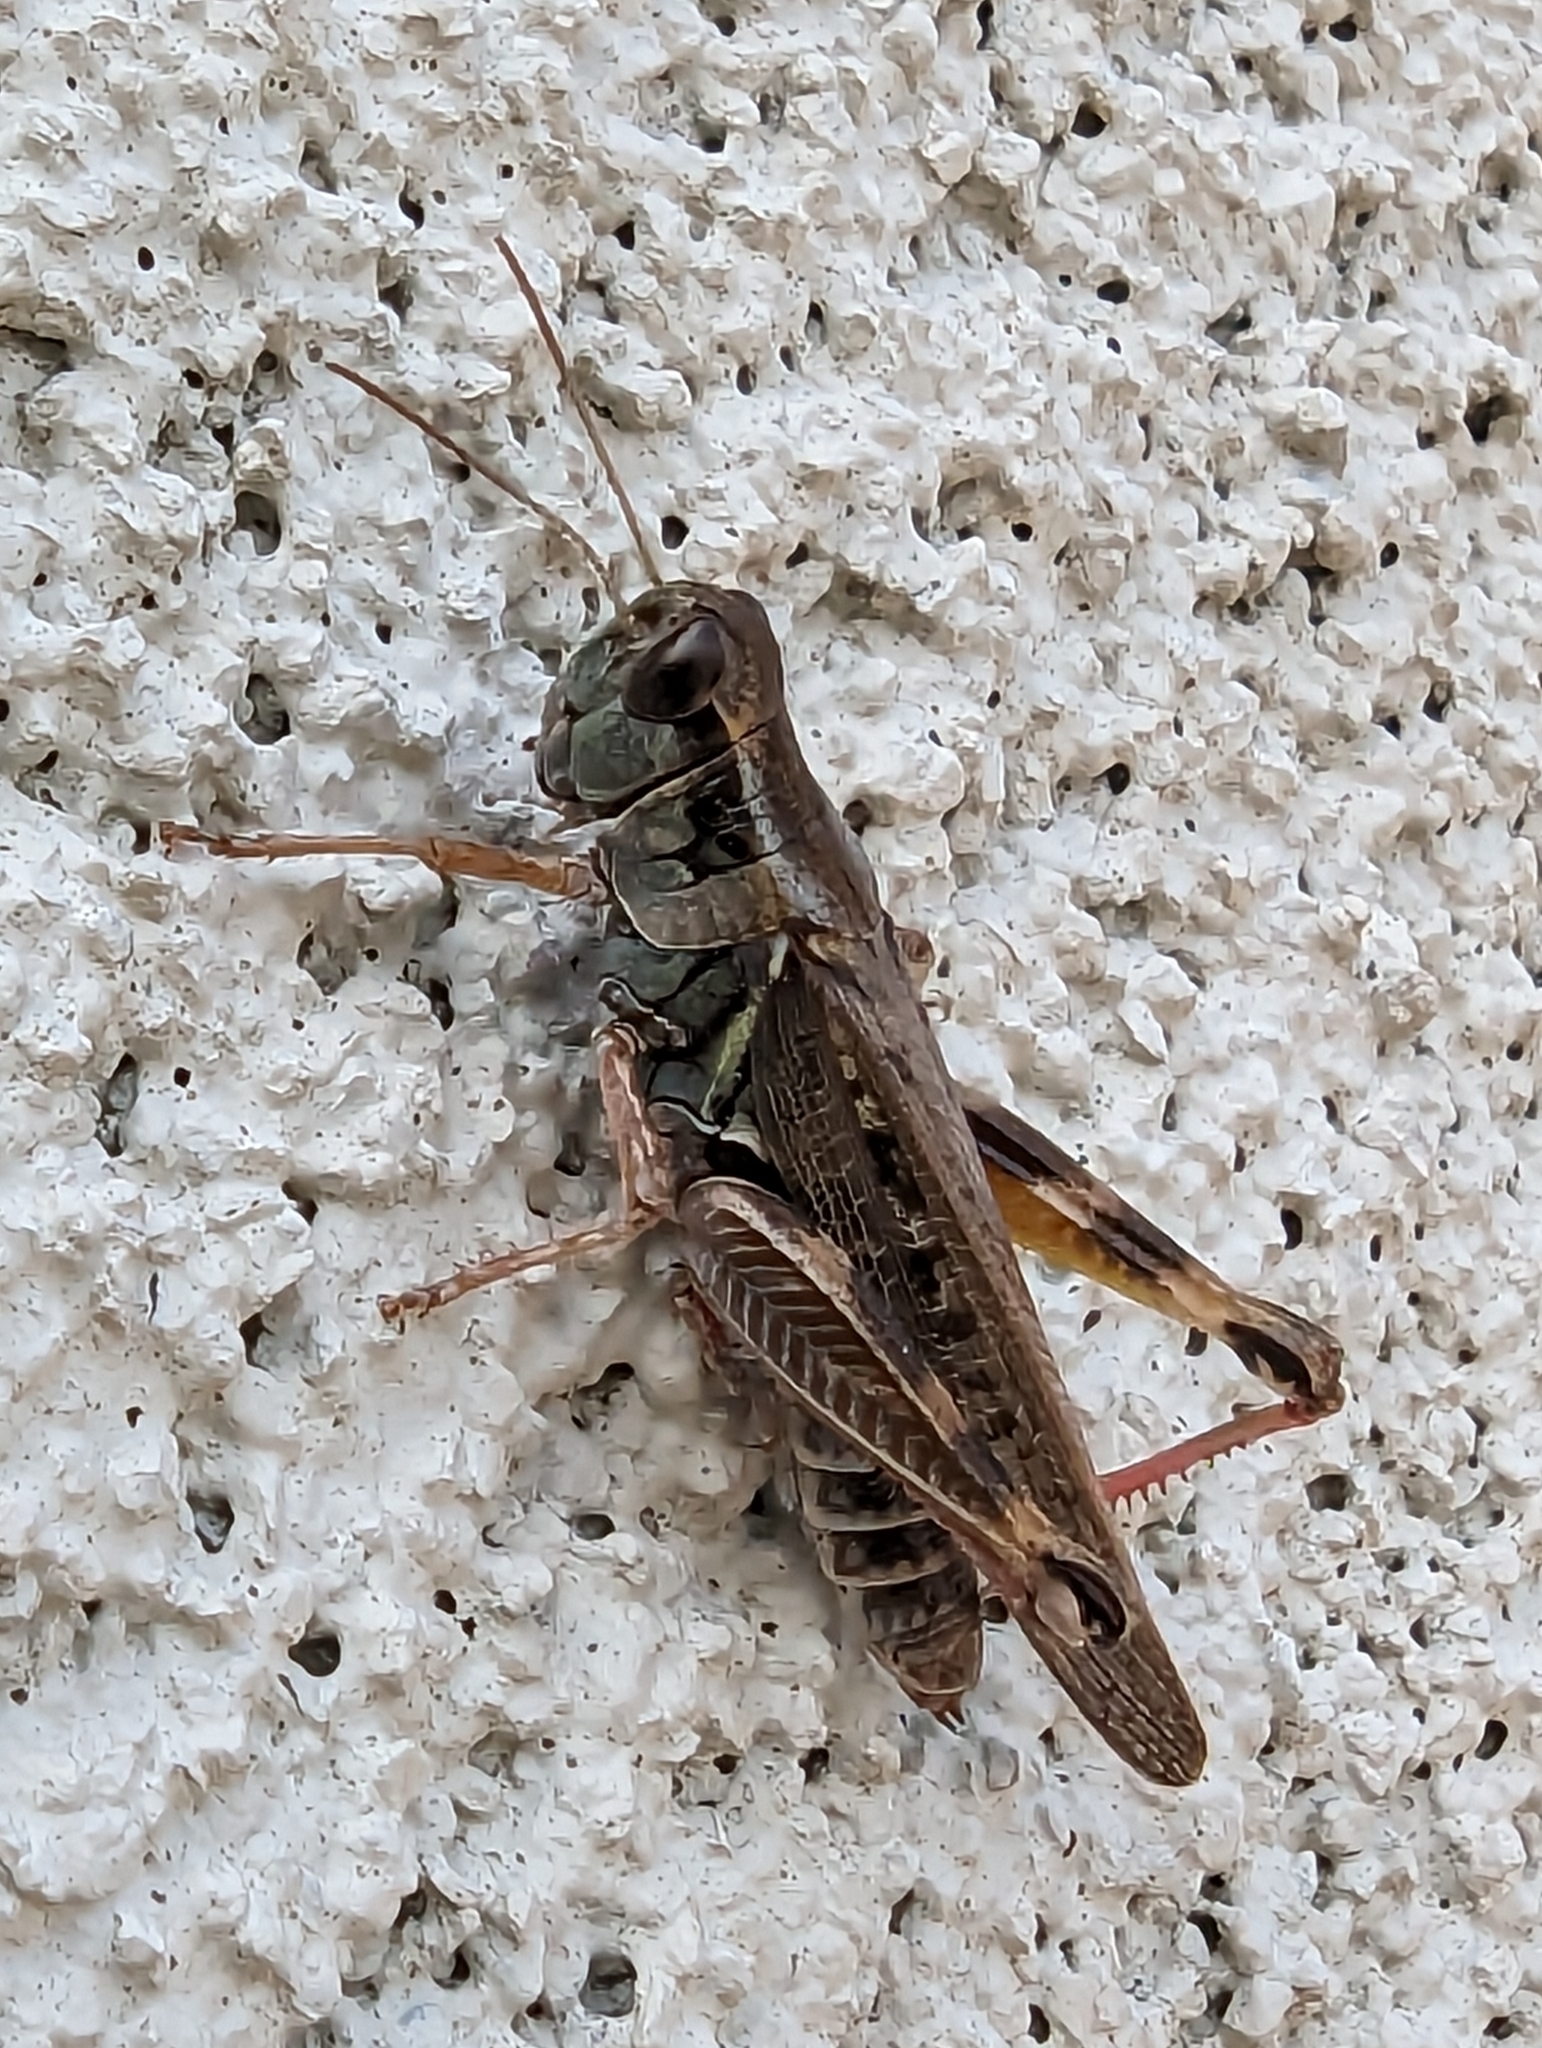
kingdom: Animalia
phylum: Arthropoda
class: Insecta
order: Orthoptera
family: Acrididae
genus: Melanoplus
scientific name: Melanoplus sanguinipes
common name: Migratory grasshopper
